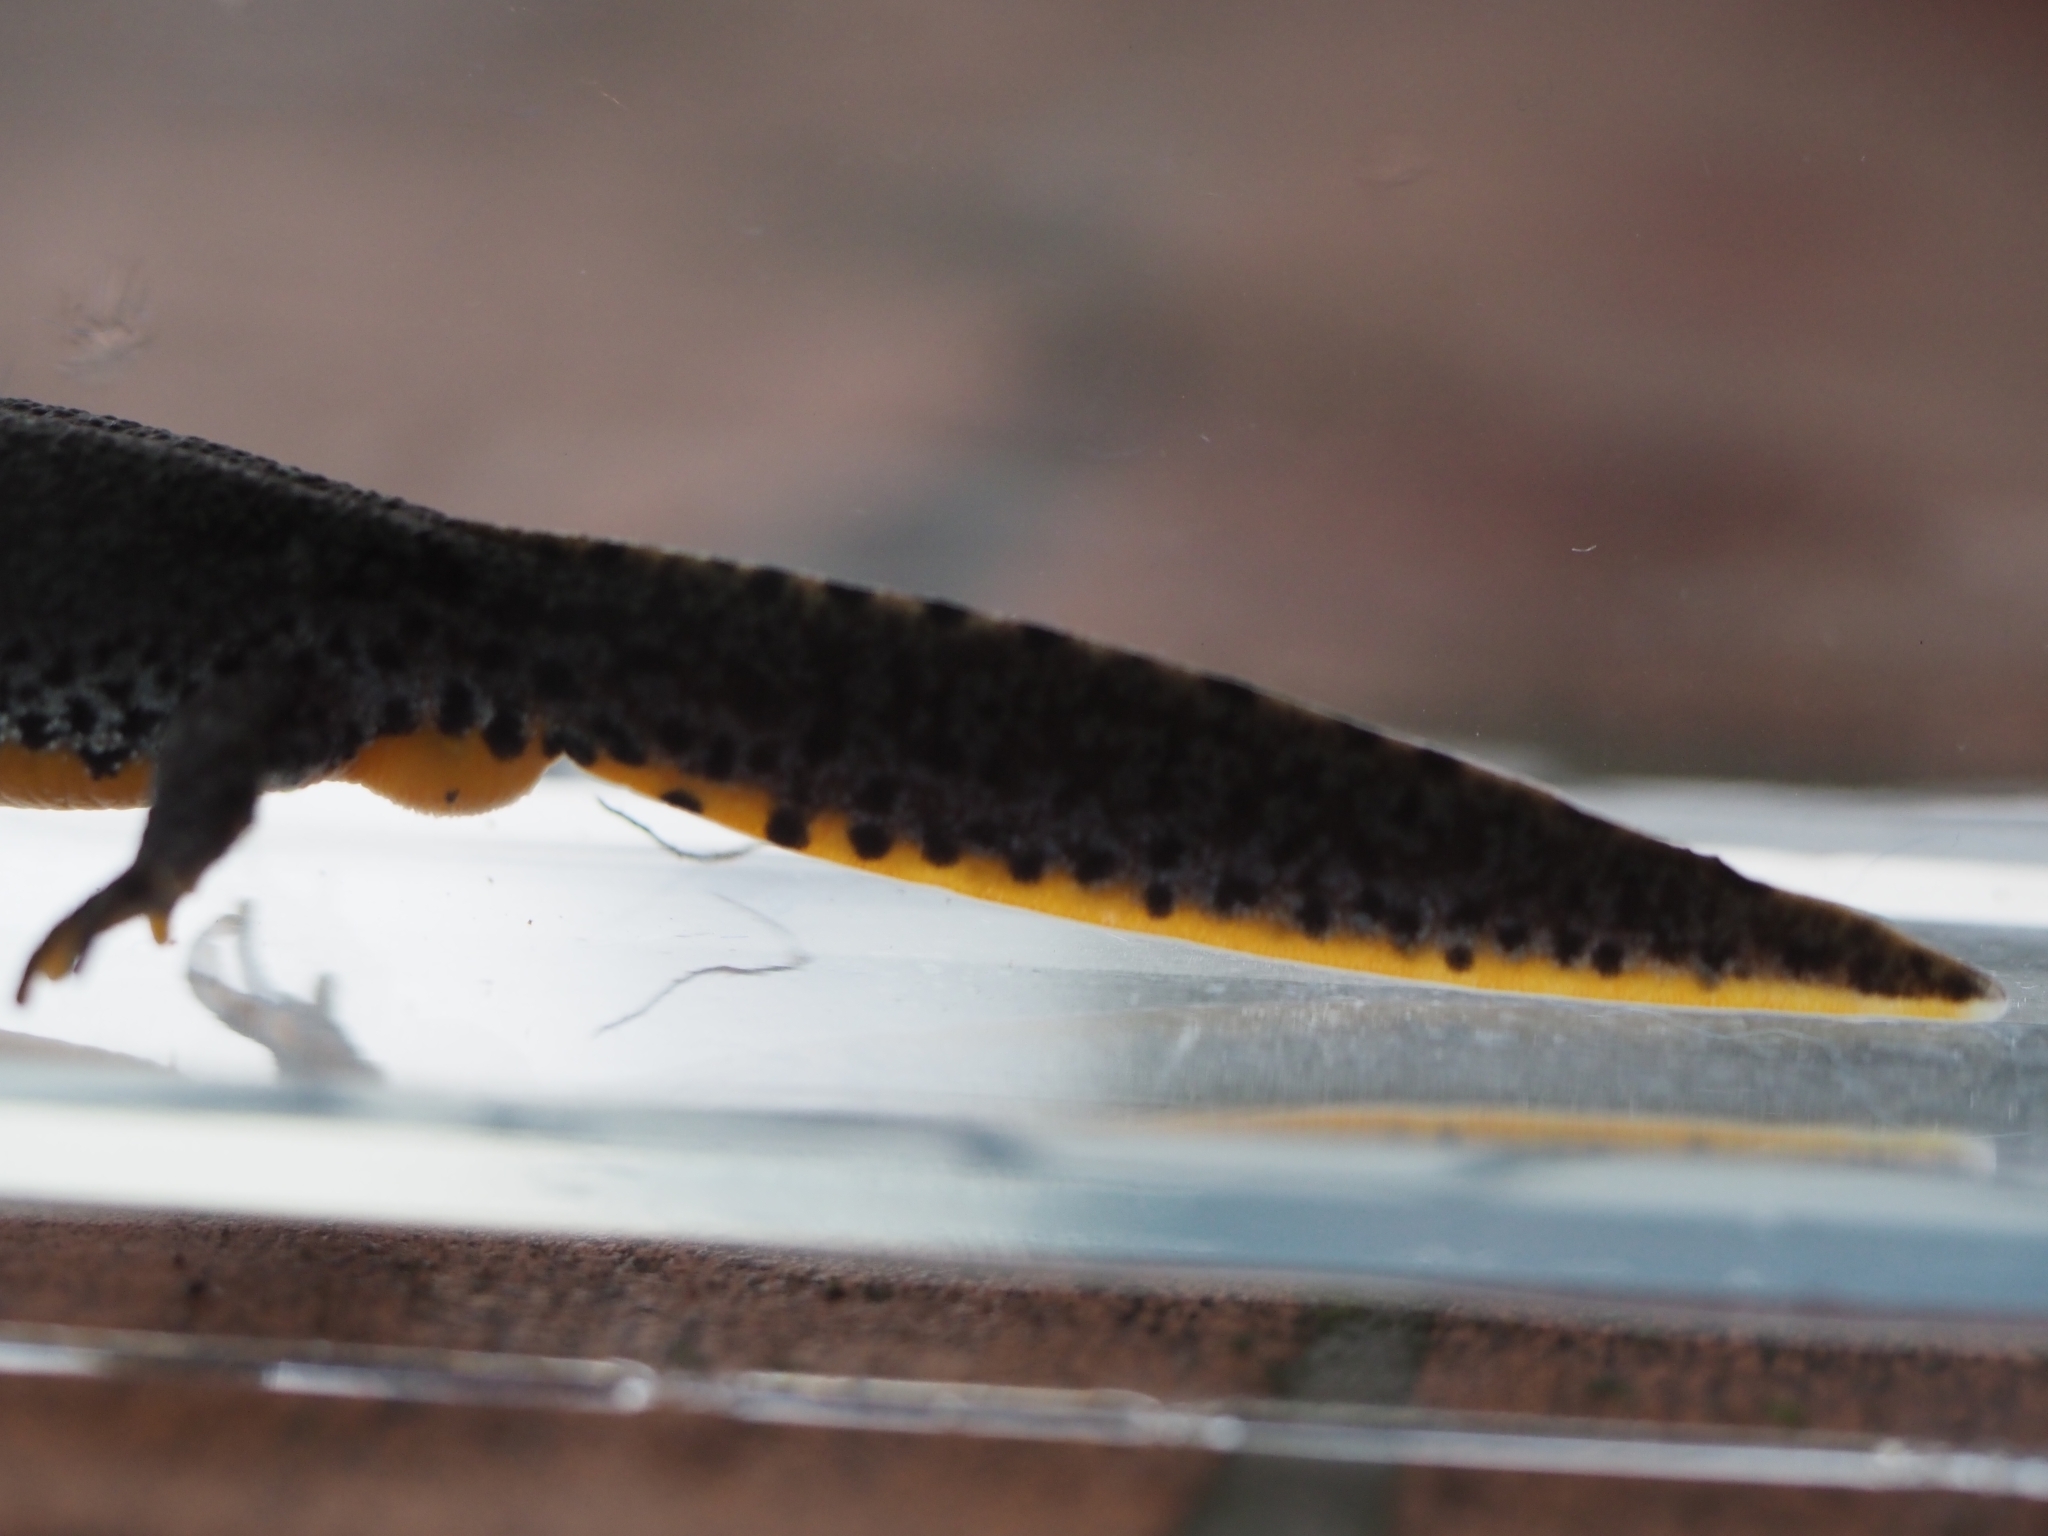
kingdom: Animalia
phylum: Chordata
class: Amphibia
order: Caudata
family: Salamandridae
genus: Ichthyosaura
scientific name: Ichthyosaura alpestris
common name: Alpine newt
